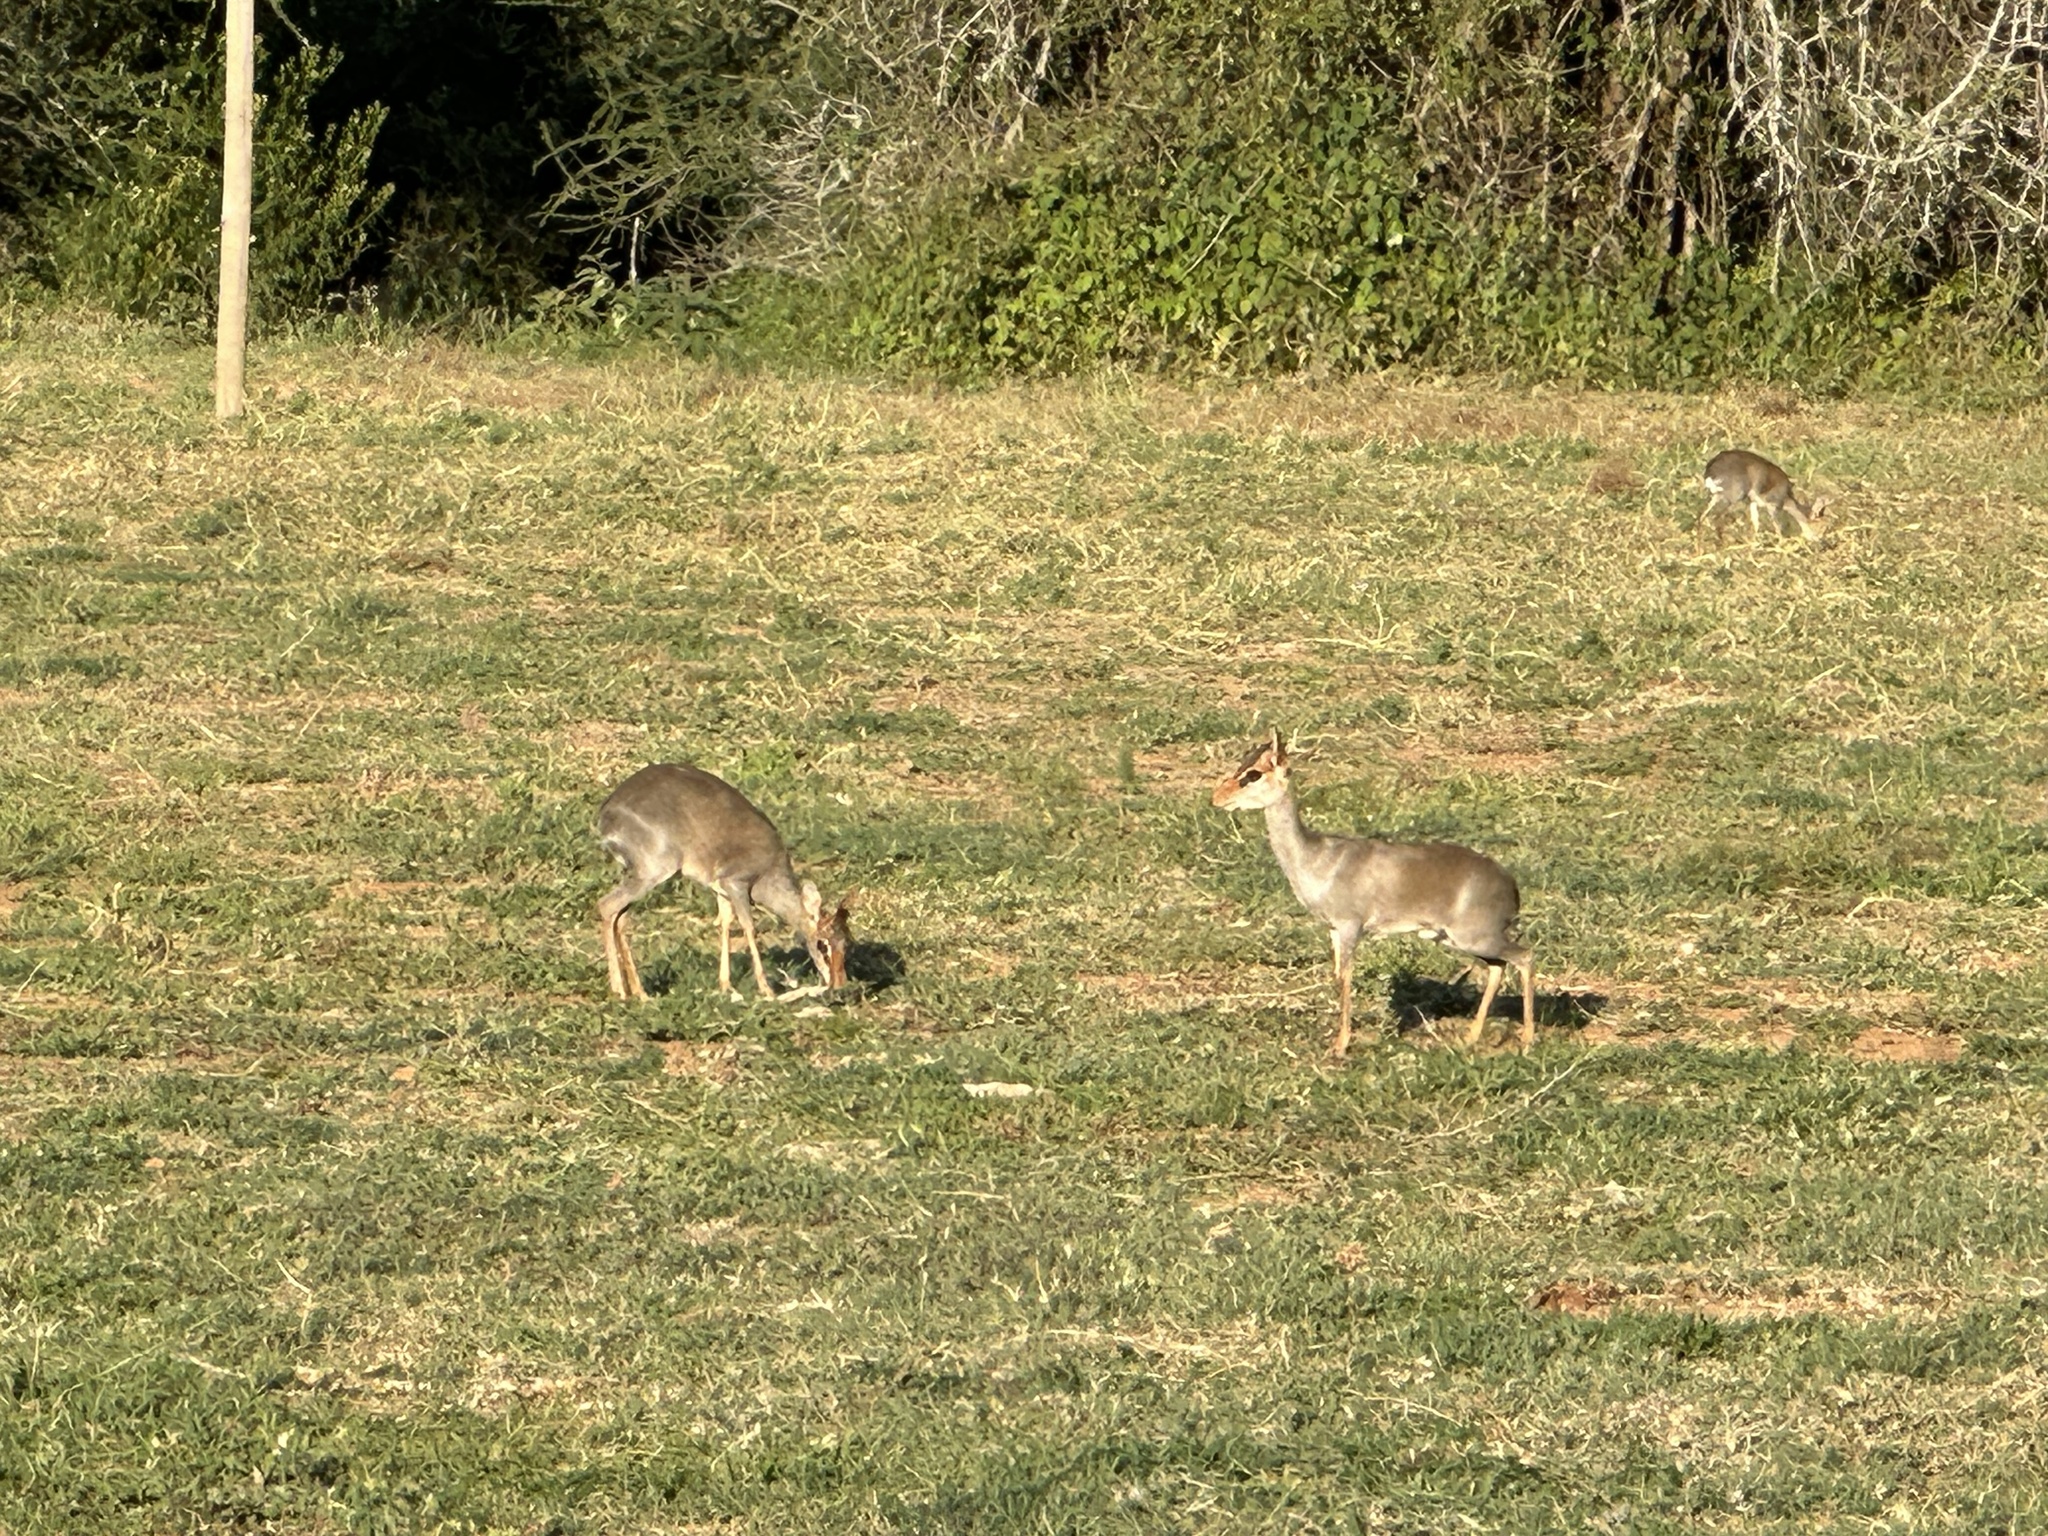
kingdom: Animalia
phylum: Chordata
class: Mammalia
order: Artiodactyla
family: Bovidae
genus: Madoqua
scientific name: Madoqua guentheri
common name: Günther's dikdik
